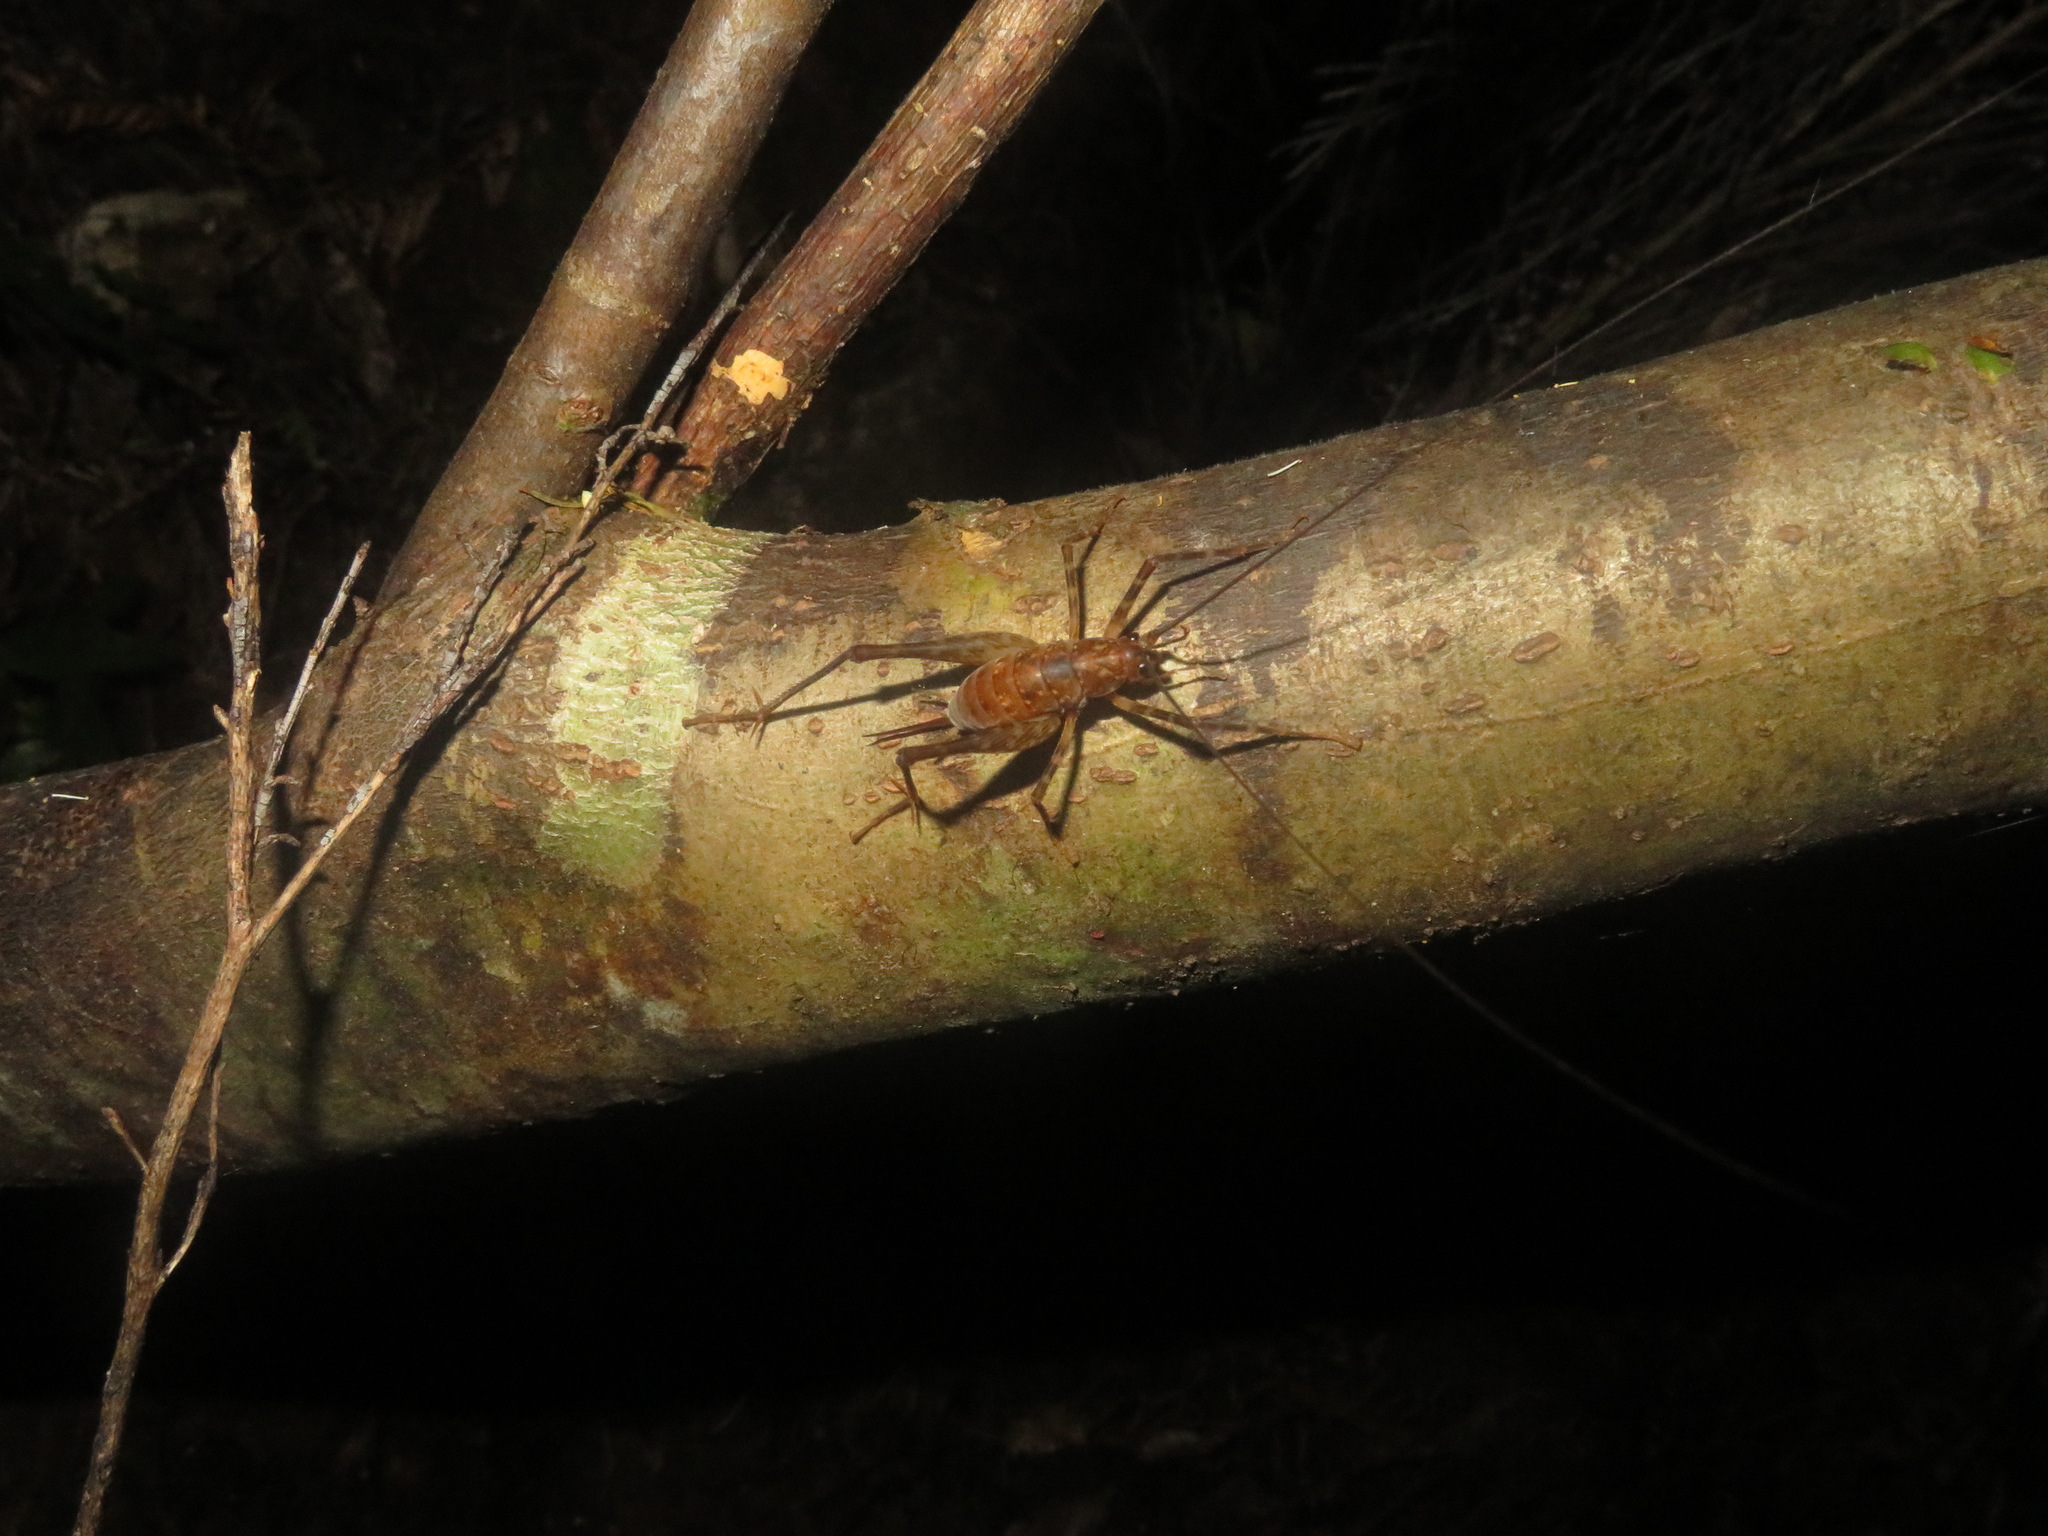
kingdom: Animalia
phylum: Arthropoda
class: Insecta
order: Orthoptera
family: Rhaphidophoridae
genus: Miotopus
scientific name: Miotopus diversus
